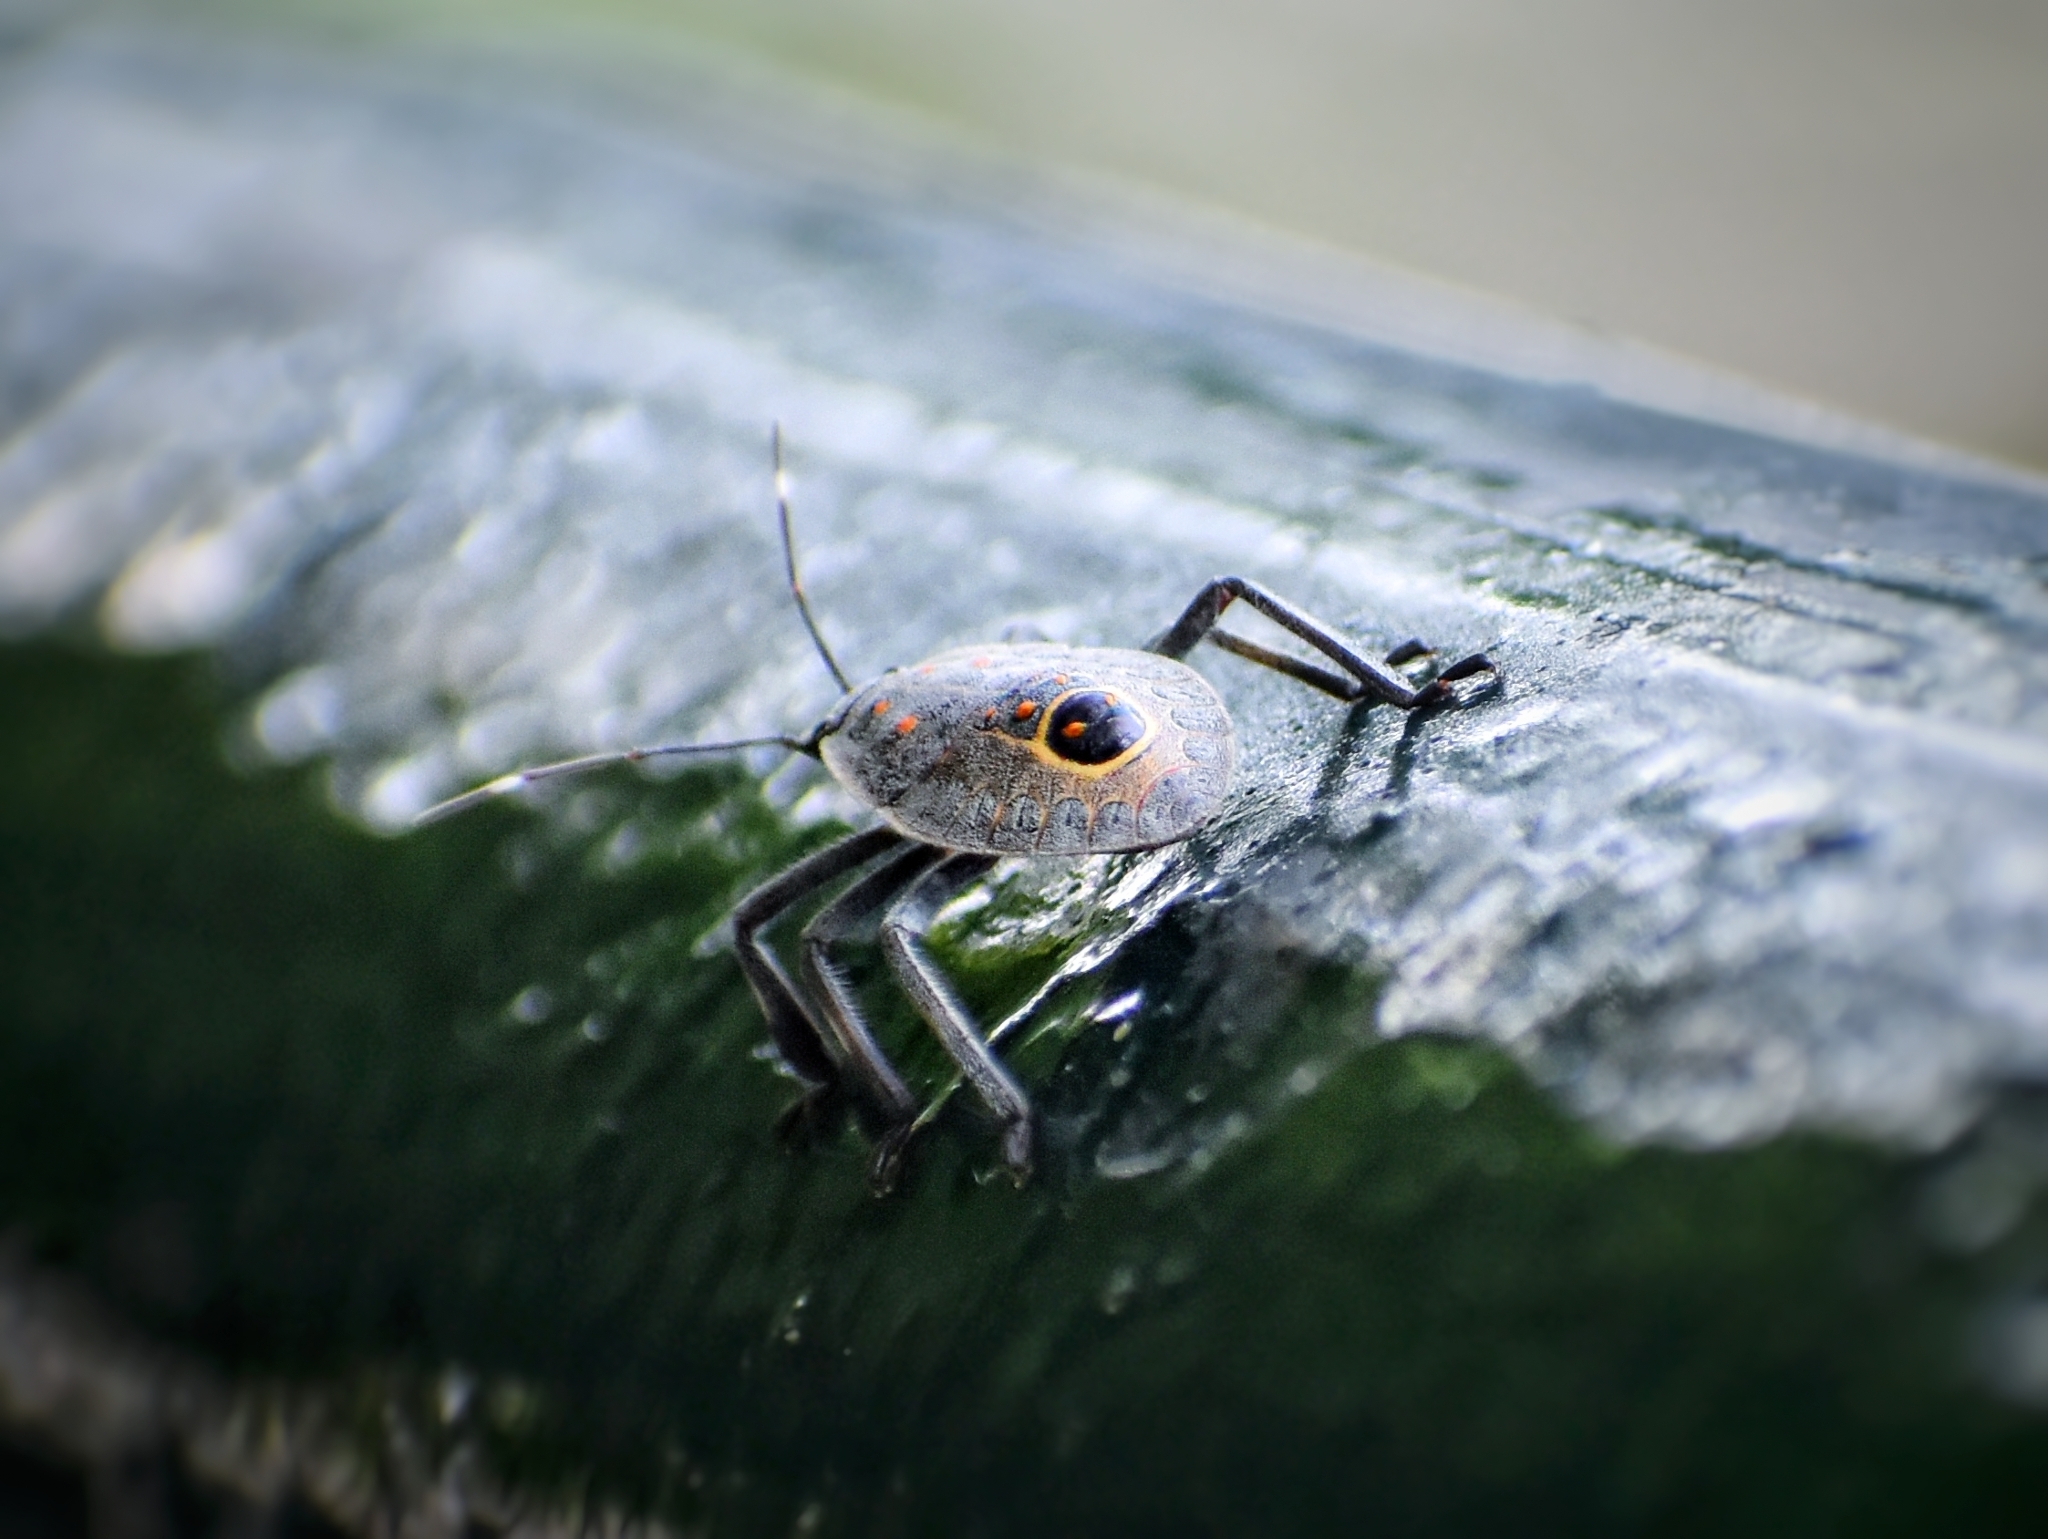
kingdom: Animalia
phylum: Arthropoda
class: Insecta
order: Hemiptera
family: Pentatomidae
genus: Erthesina
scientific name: Erthesina fullo
